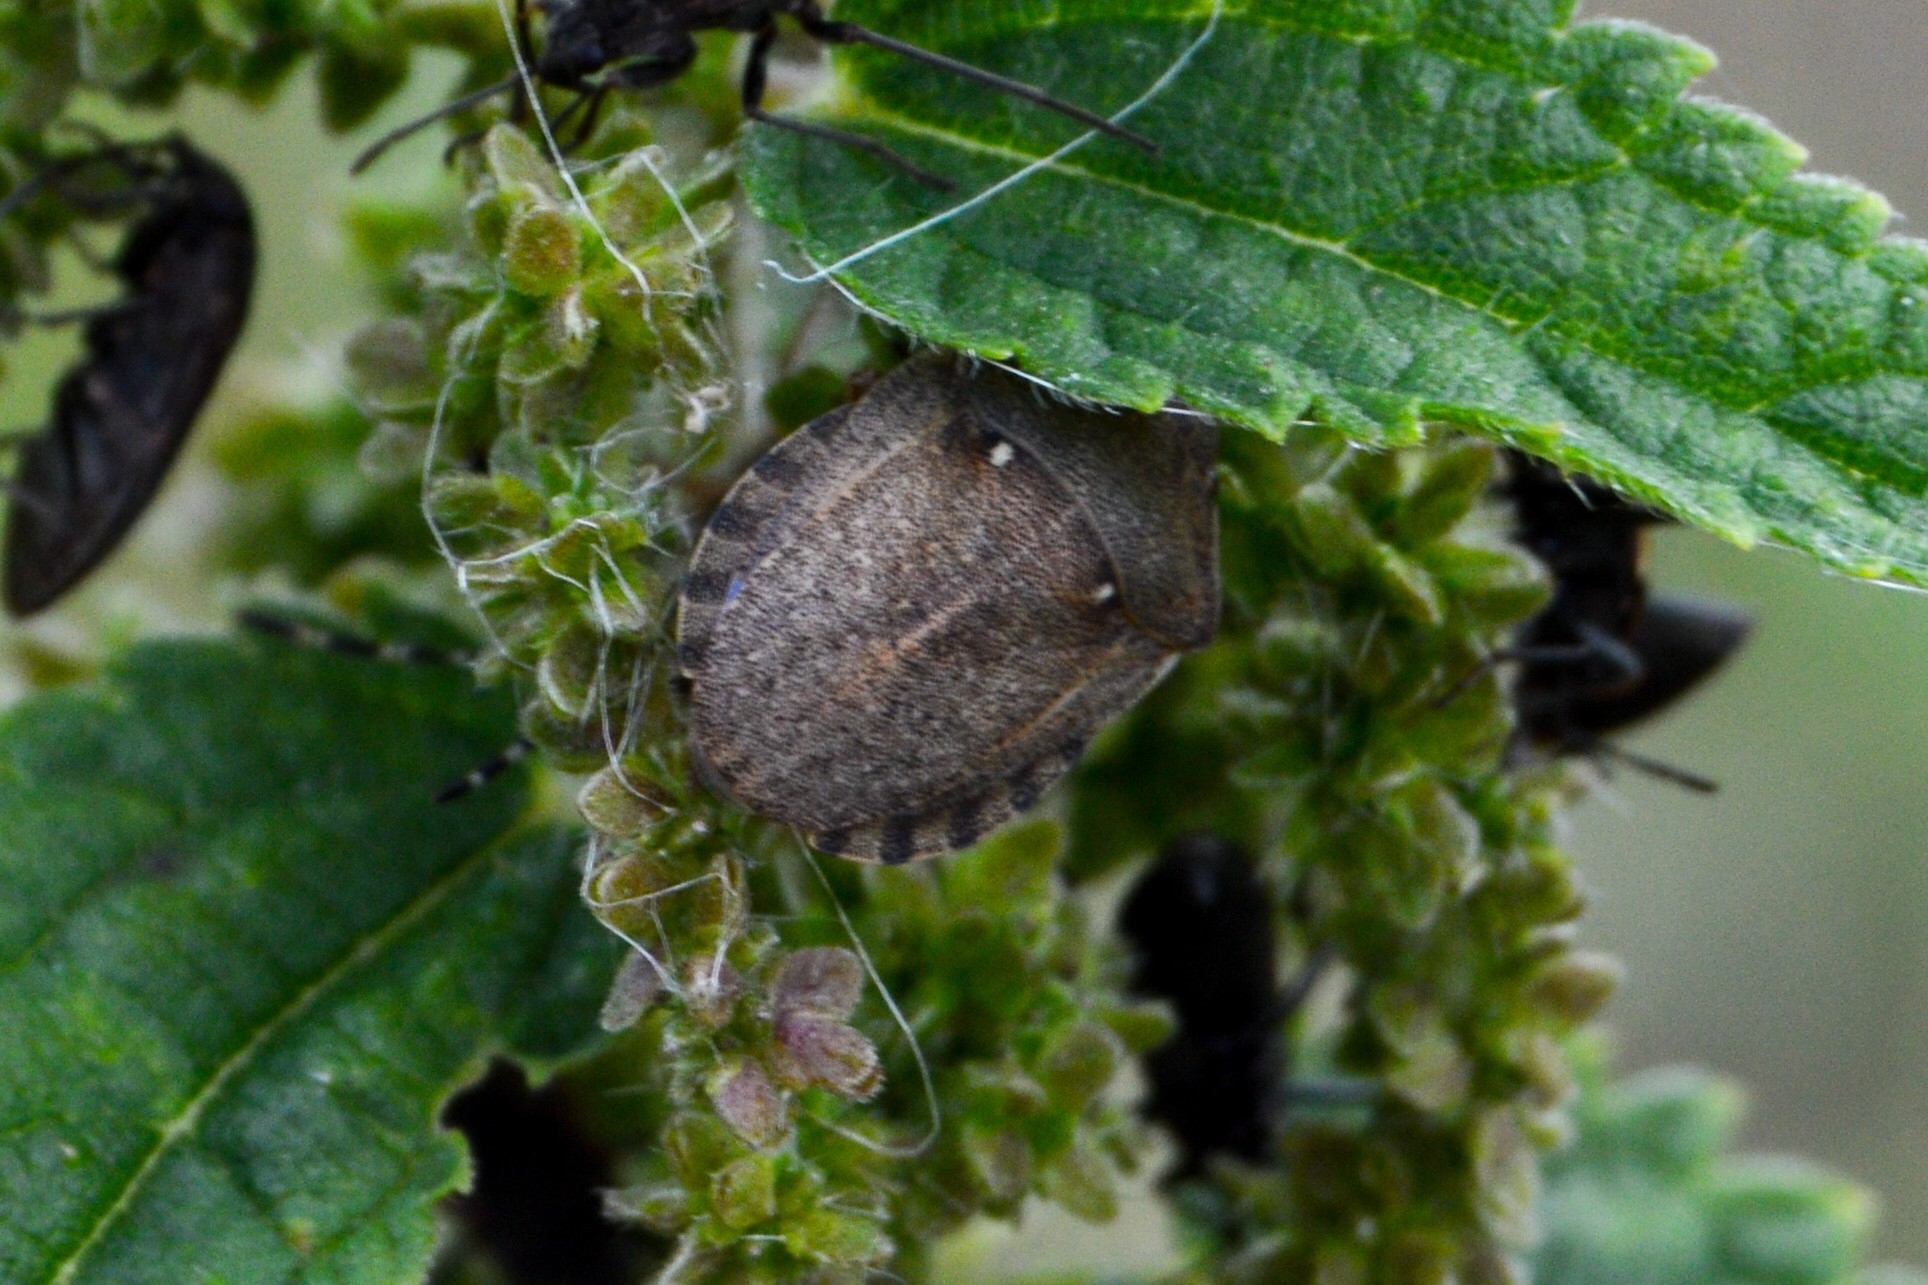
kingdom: Animalia
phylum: Arthropoda
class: Insecta
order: Hemiptera
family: Scutelleridae
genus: Eurygaster
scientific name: Eurygaster testudinaria
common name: Tortoise bug
